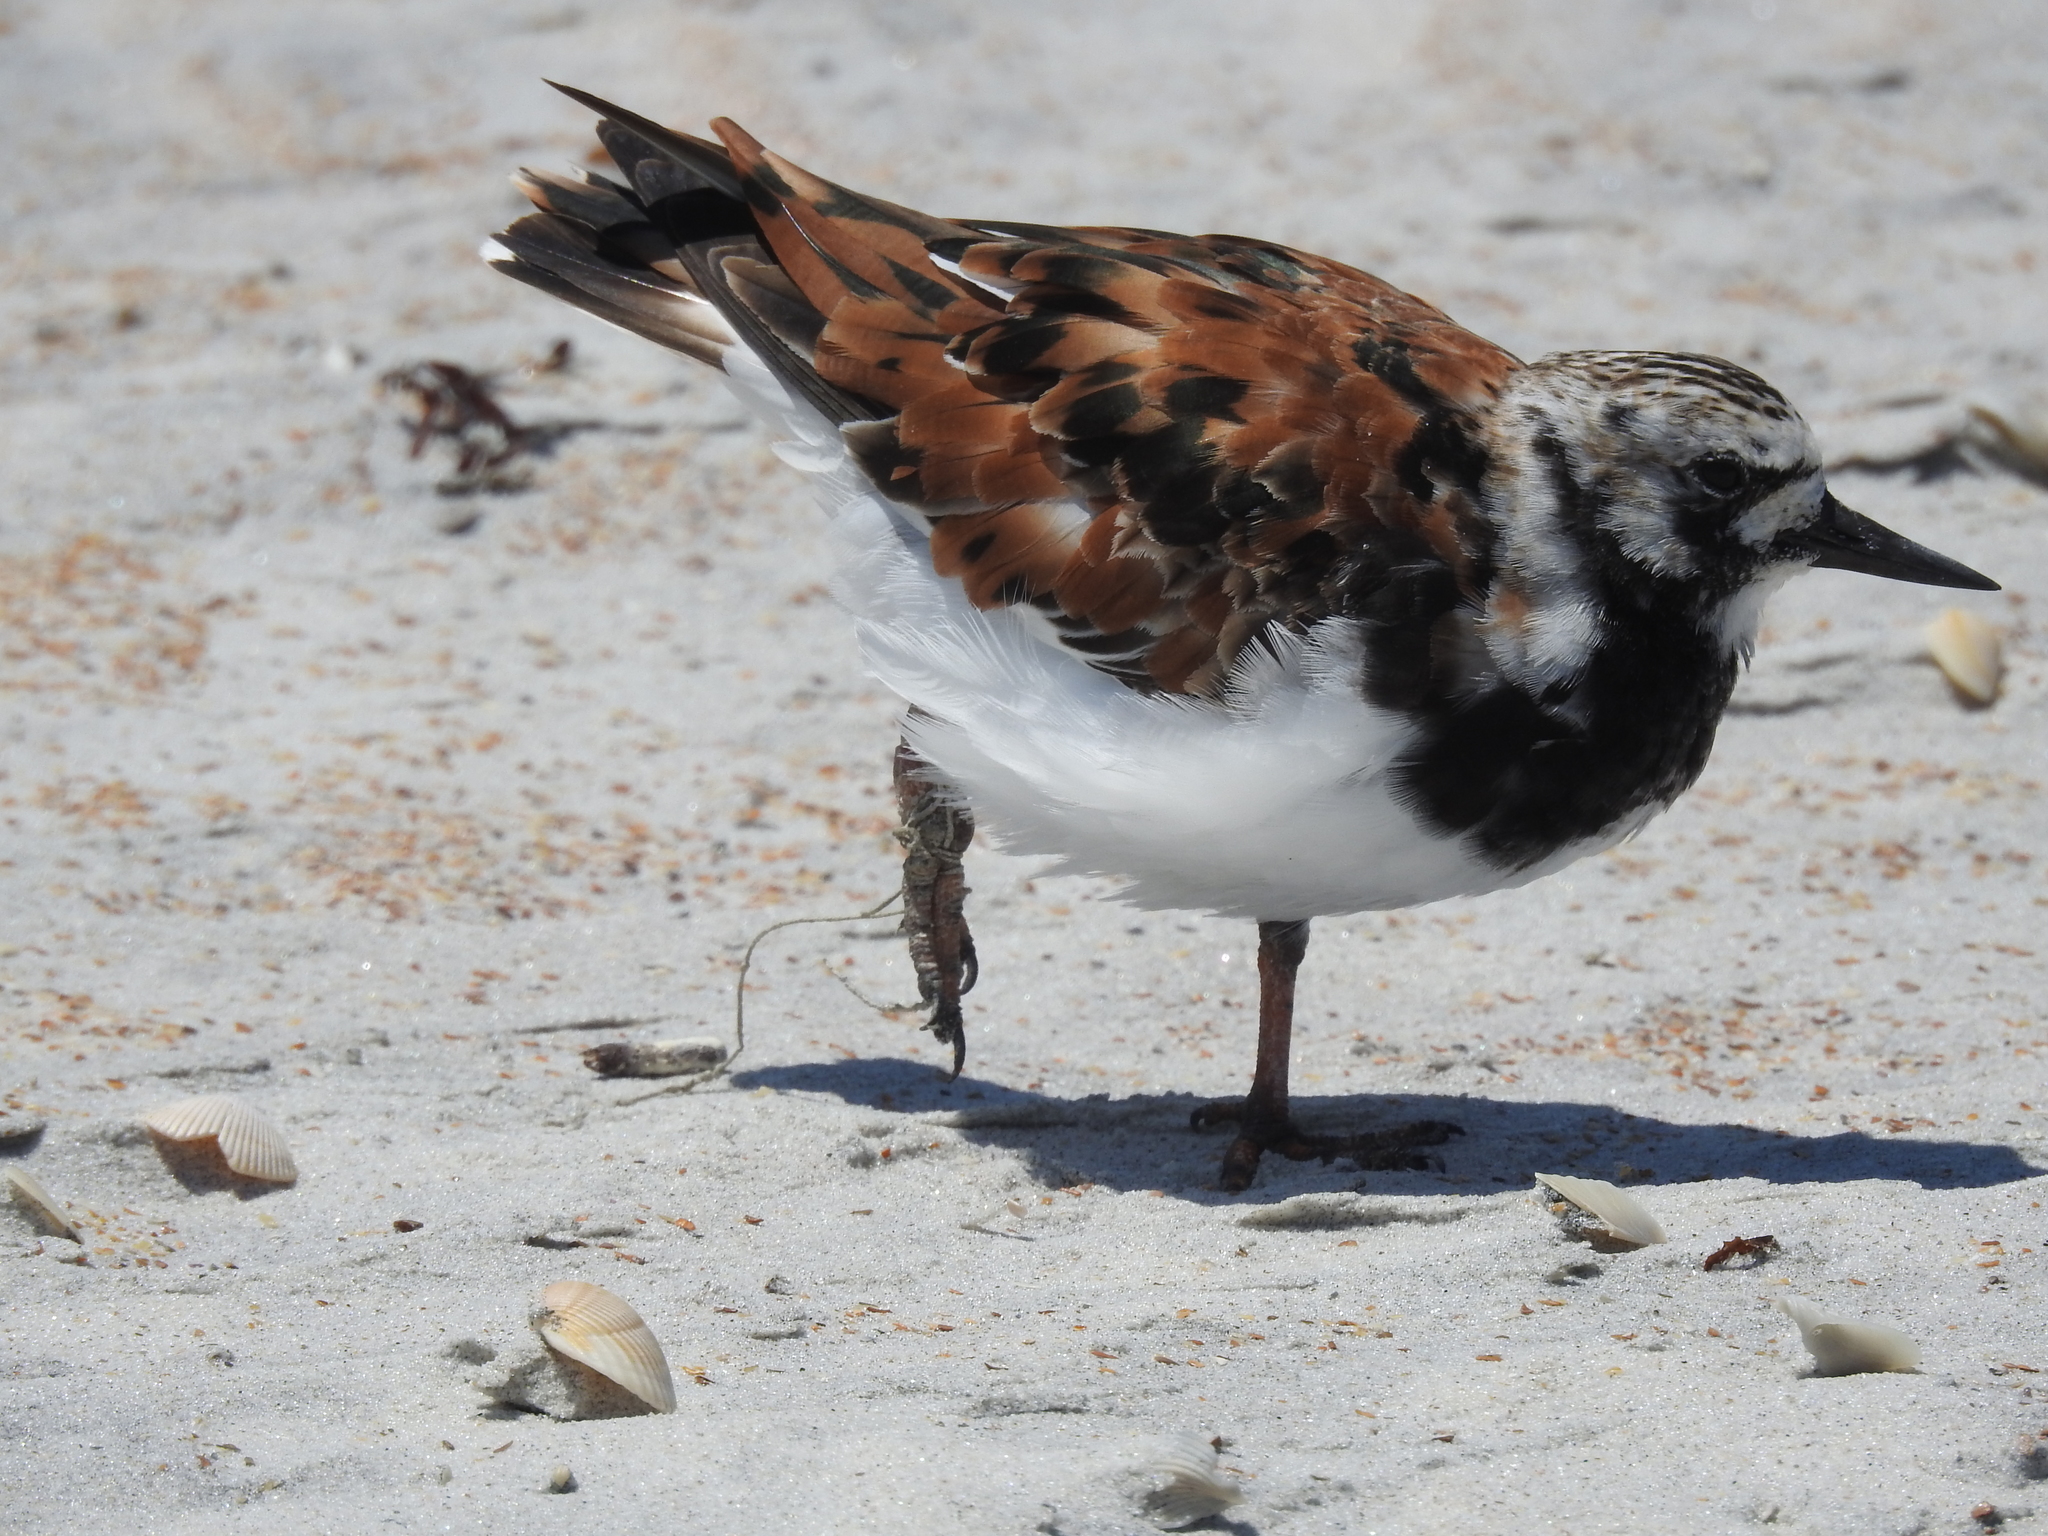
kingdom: Animalia
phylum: Chordata
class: Aves
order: Charadriiformes
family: Scolopacidae
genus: Arenaria
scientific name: Arenaria interpres
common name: Ruddy turnstone
